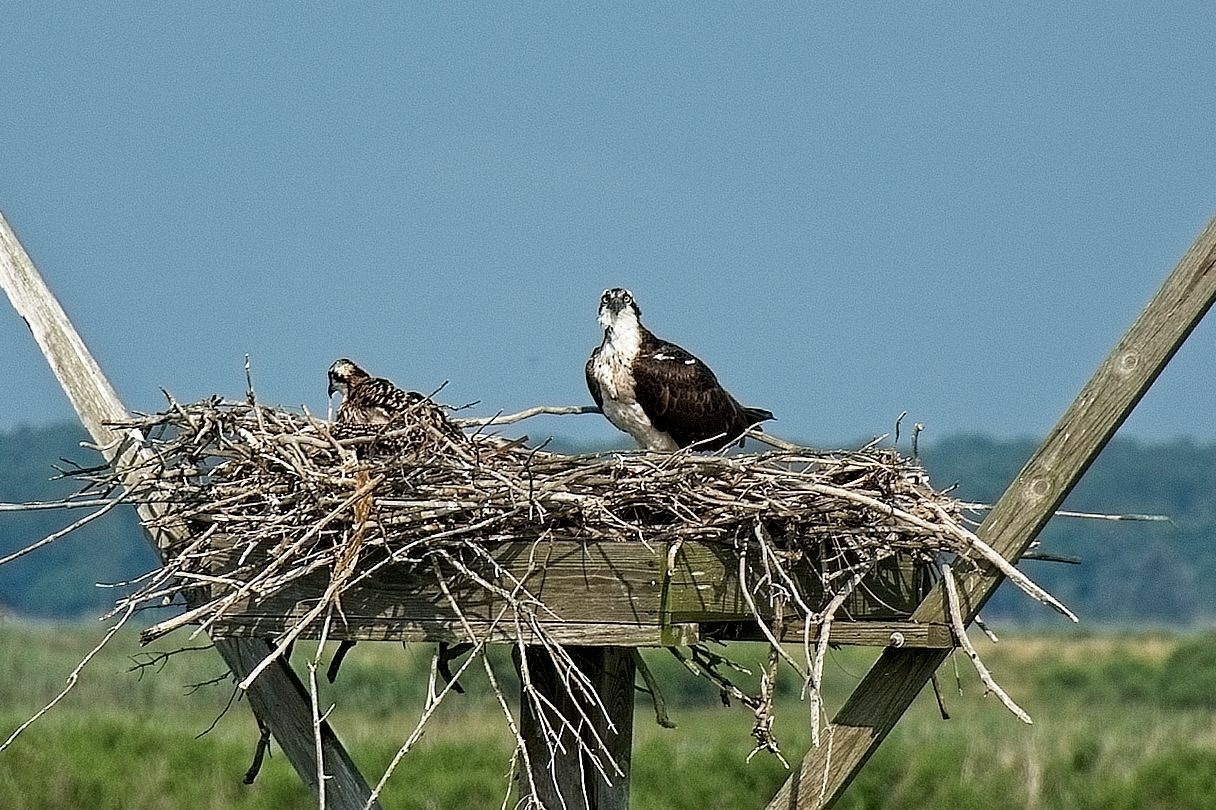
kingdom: Animalia
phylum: Chordata
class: Aves
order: Accipitriformes
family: Pandionidae
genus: Pandion
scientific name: Pandion haliaetus
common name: Osprey
